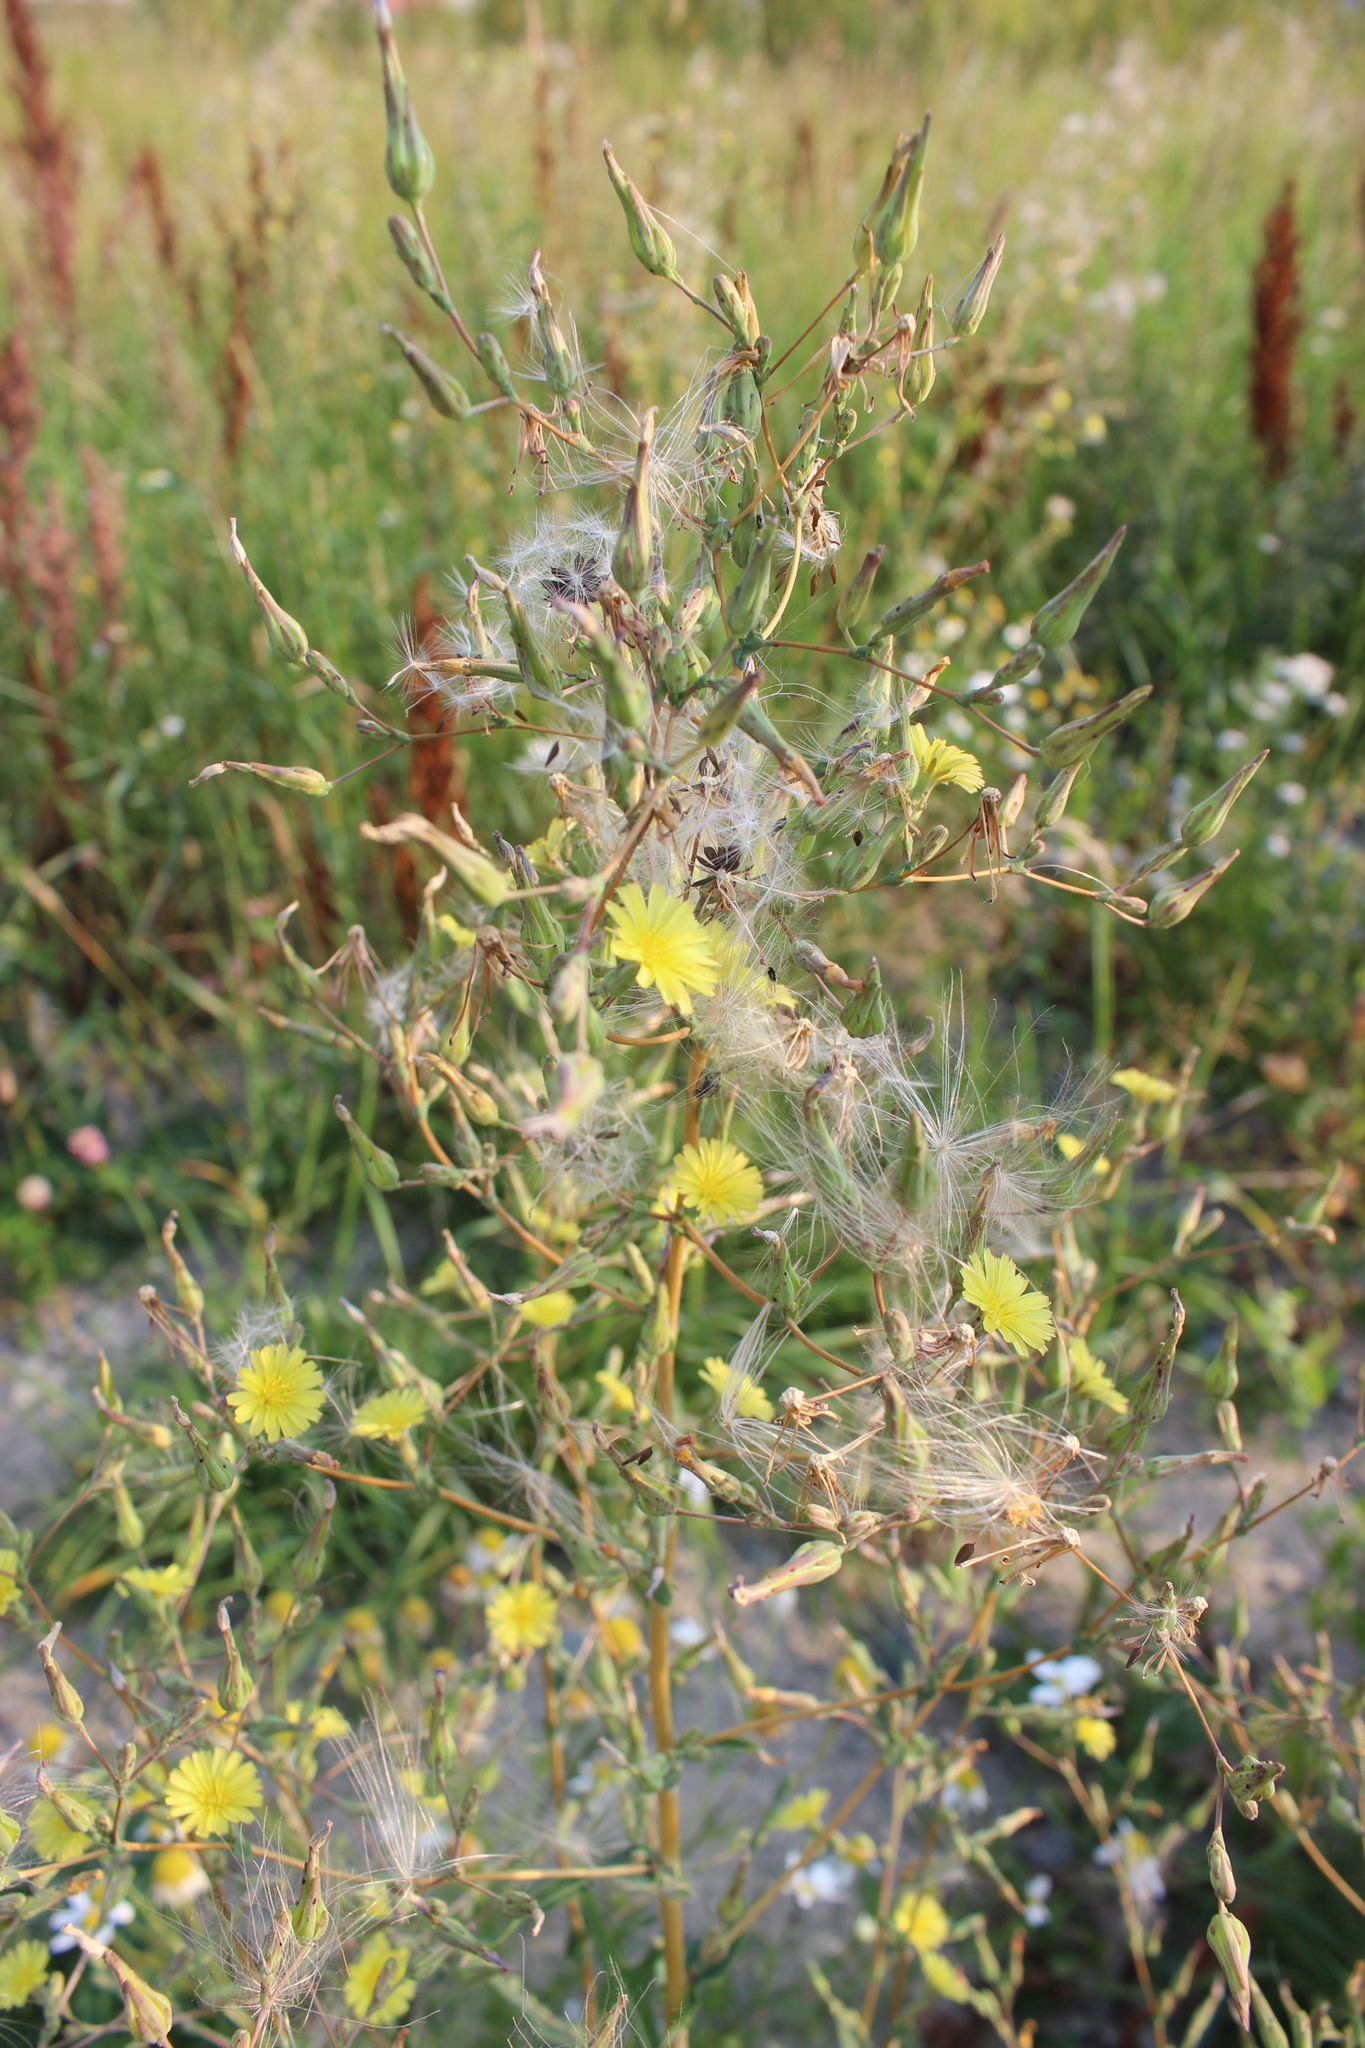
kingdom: Plantae
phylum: Tracheophyta
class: Magnoliopsida
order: Asterales
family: Asteraceae
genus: Lactuca
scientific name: Lactuca serriola
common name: Prickly lettuce
